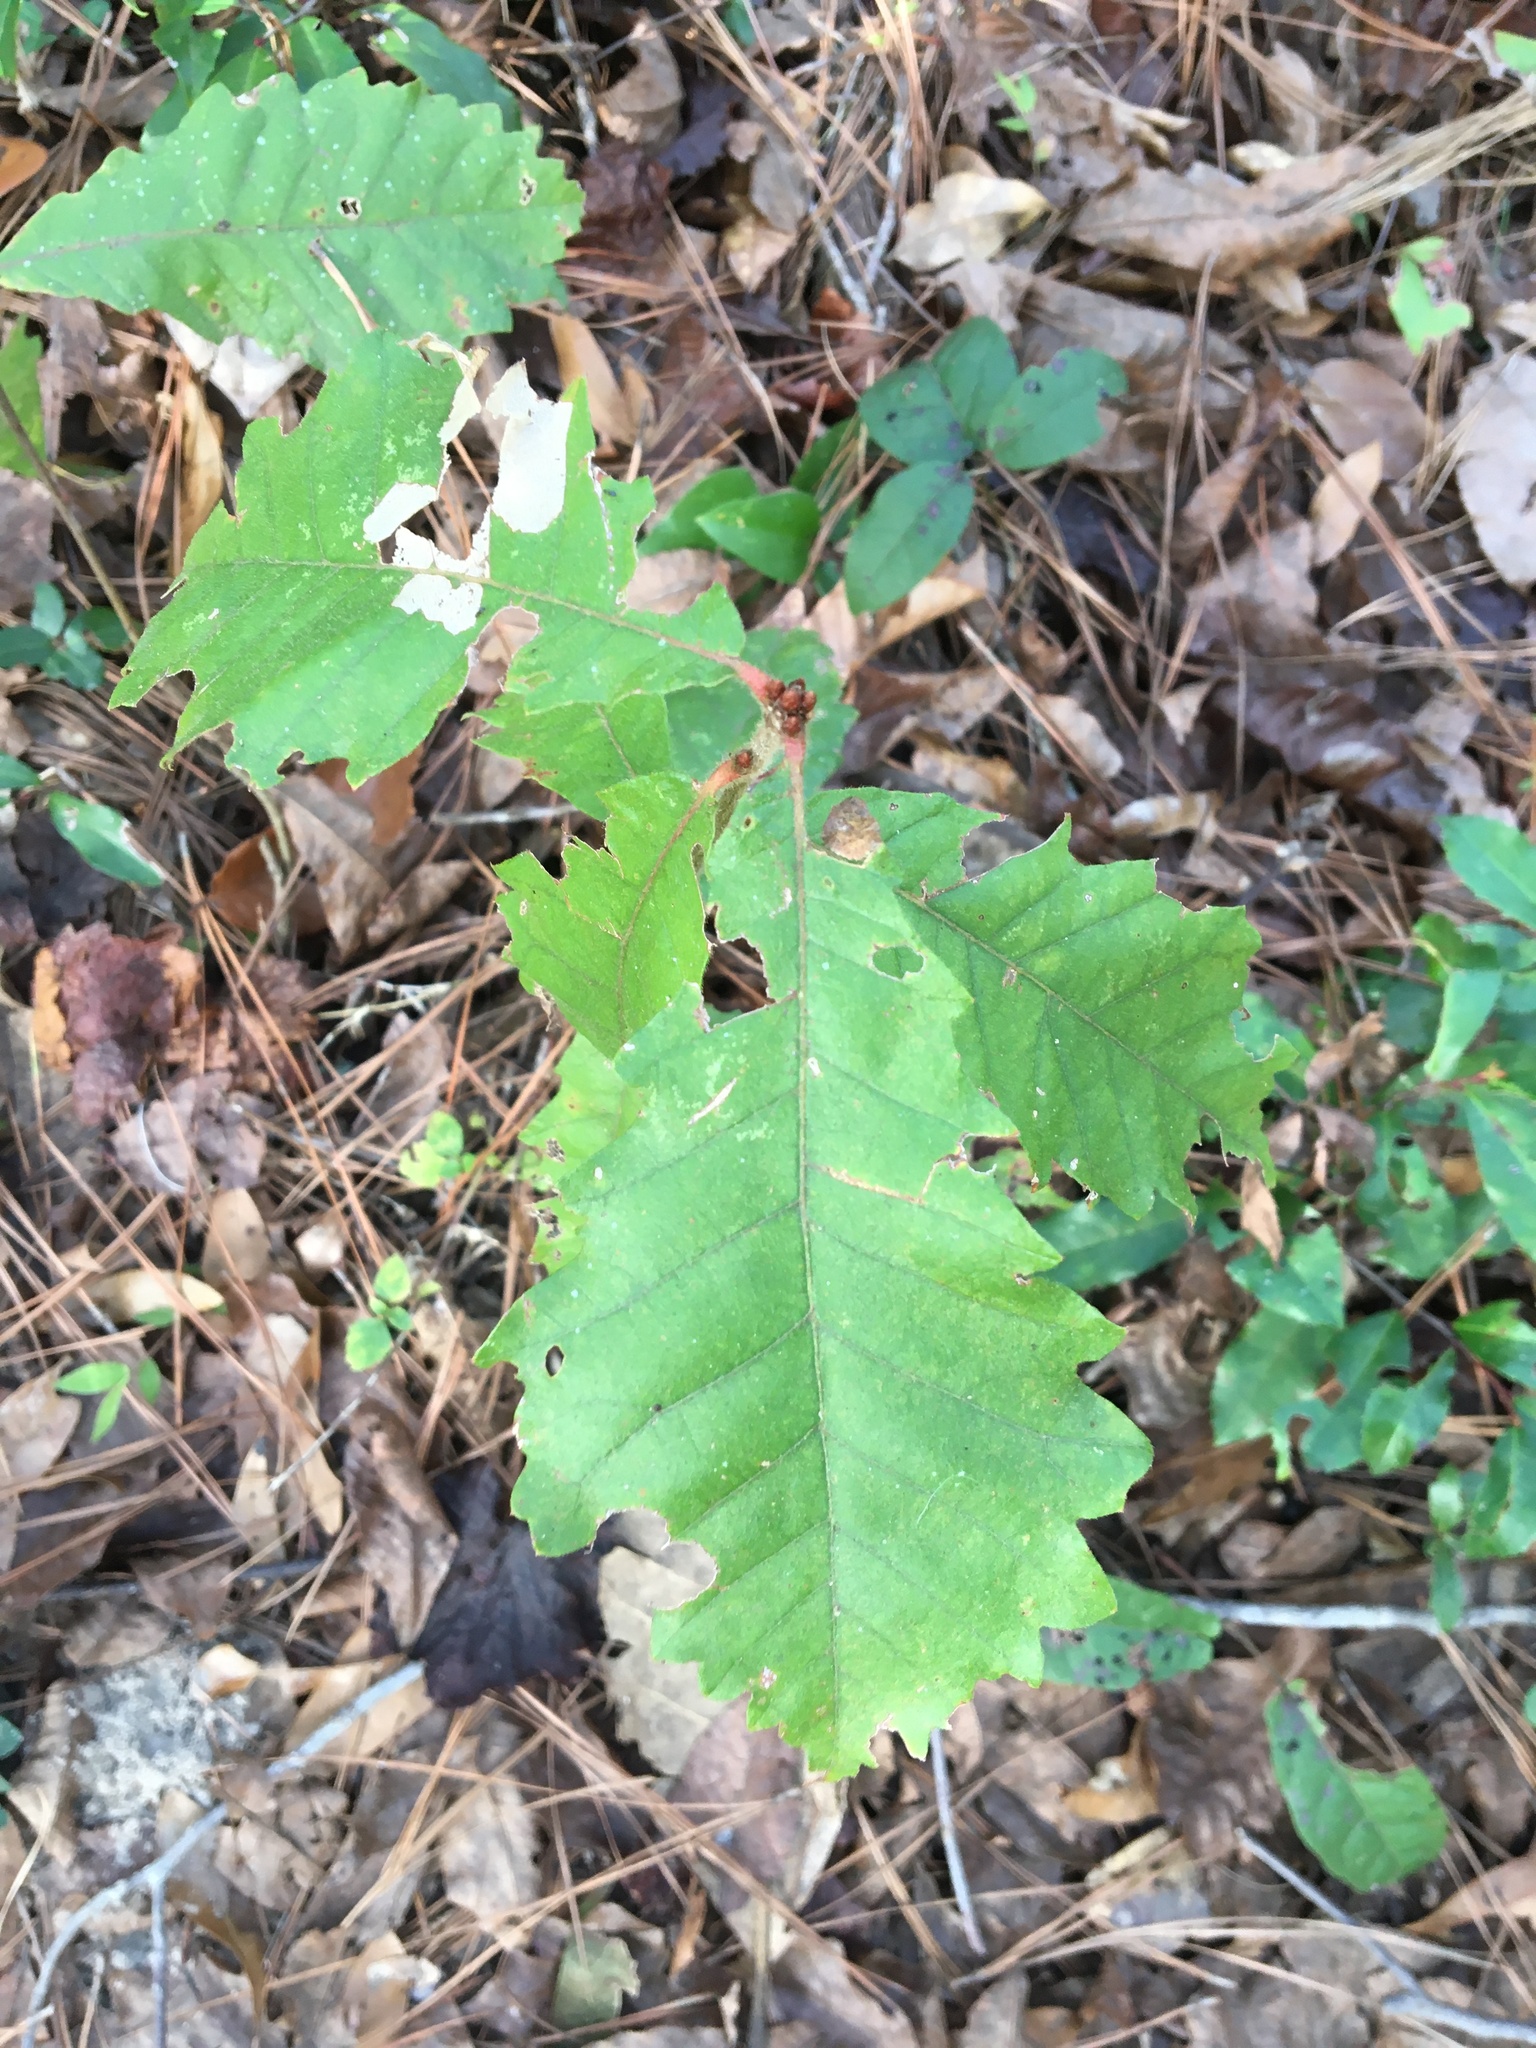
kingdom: Plantae
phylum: Tracheophyta
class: Magnoliopsida
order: Fagales
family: Fagaceae
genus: Quercus
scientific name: Quercus michauxii
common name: Swamp chestnut oak
